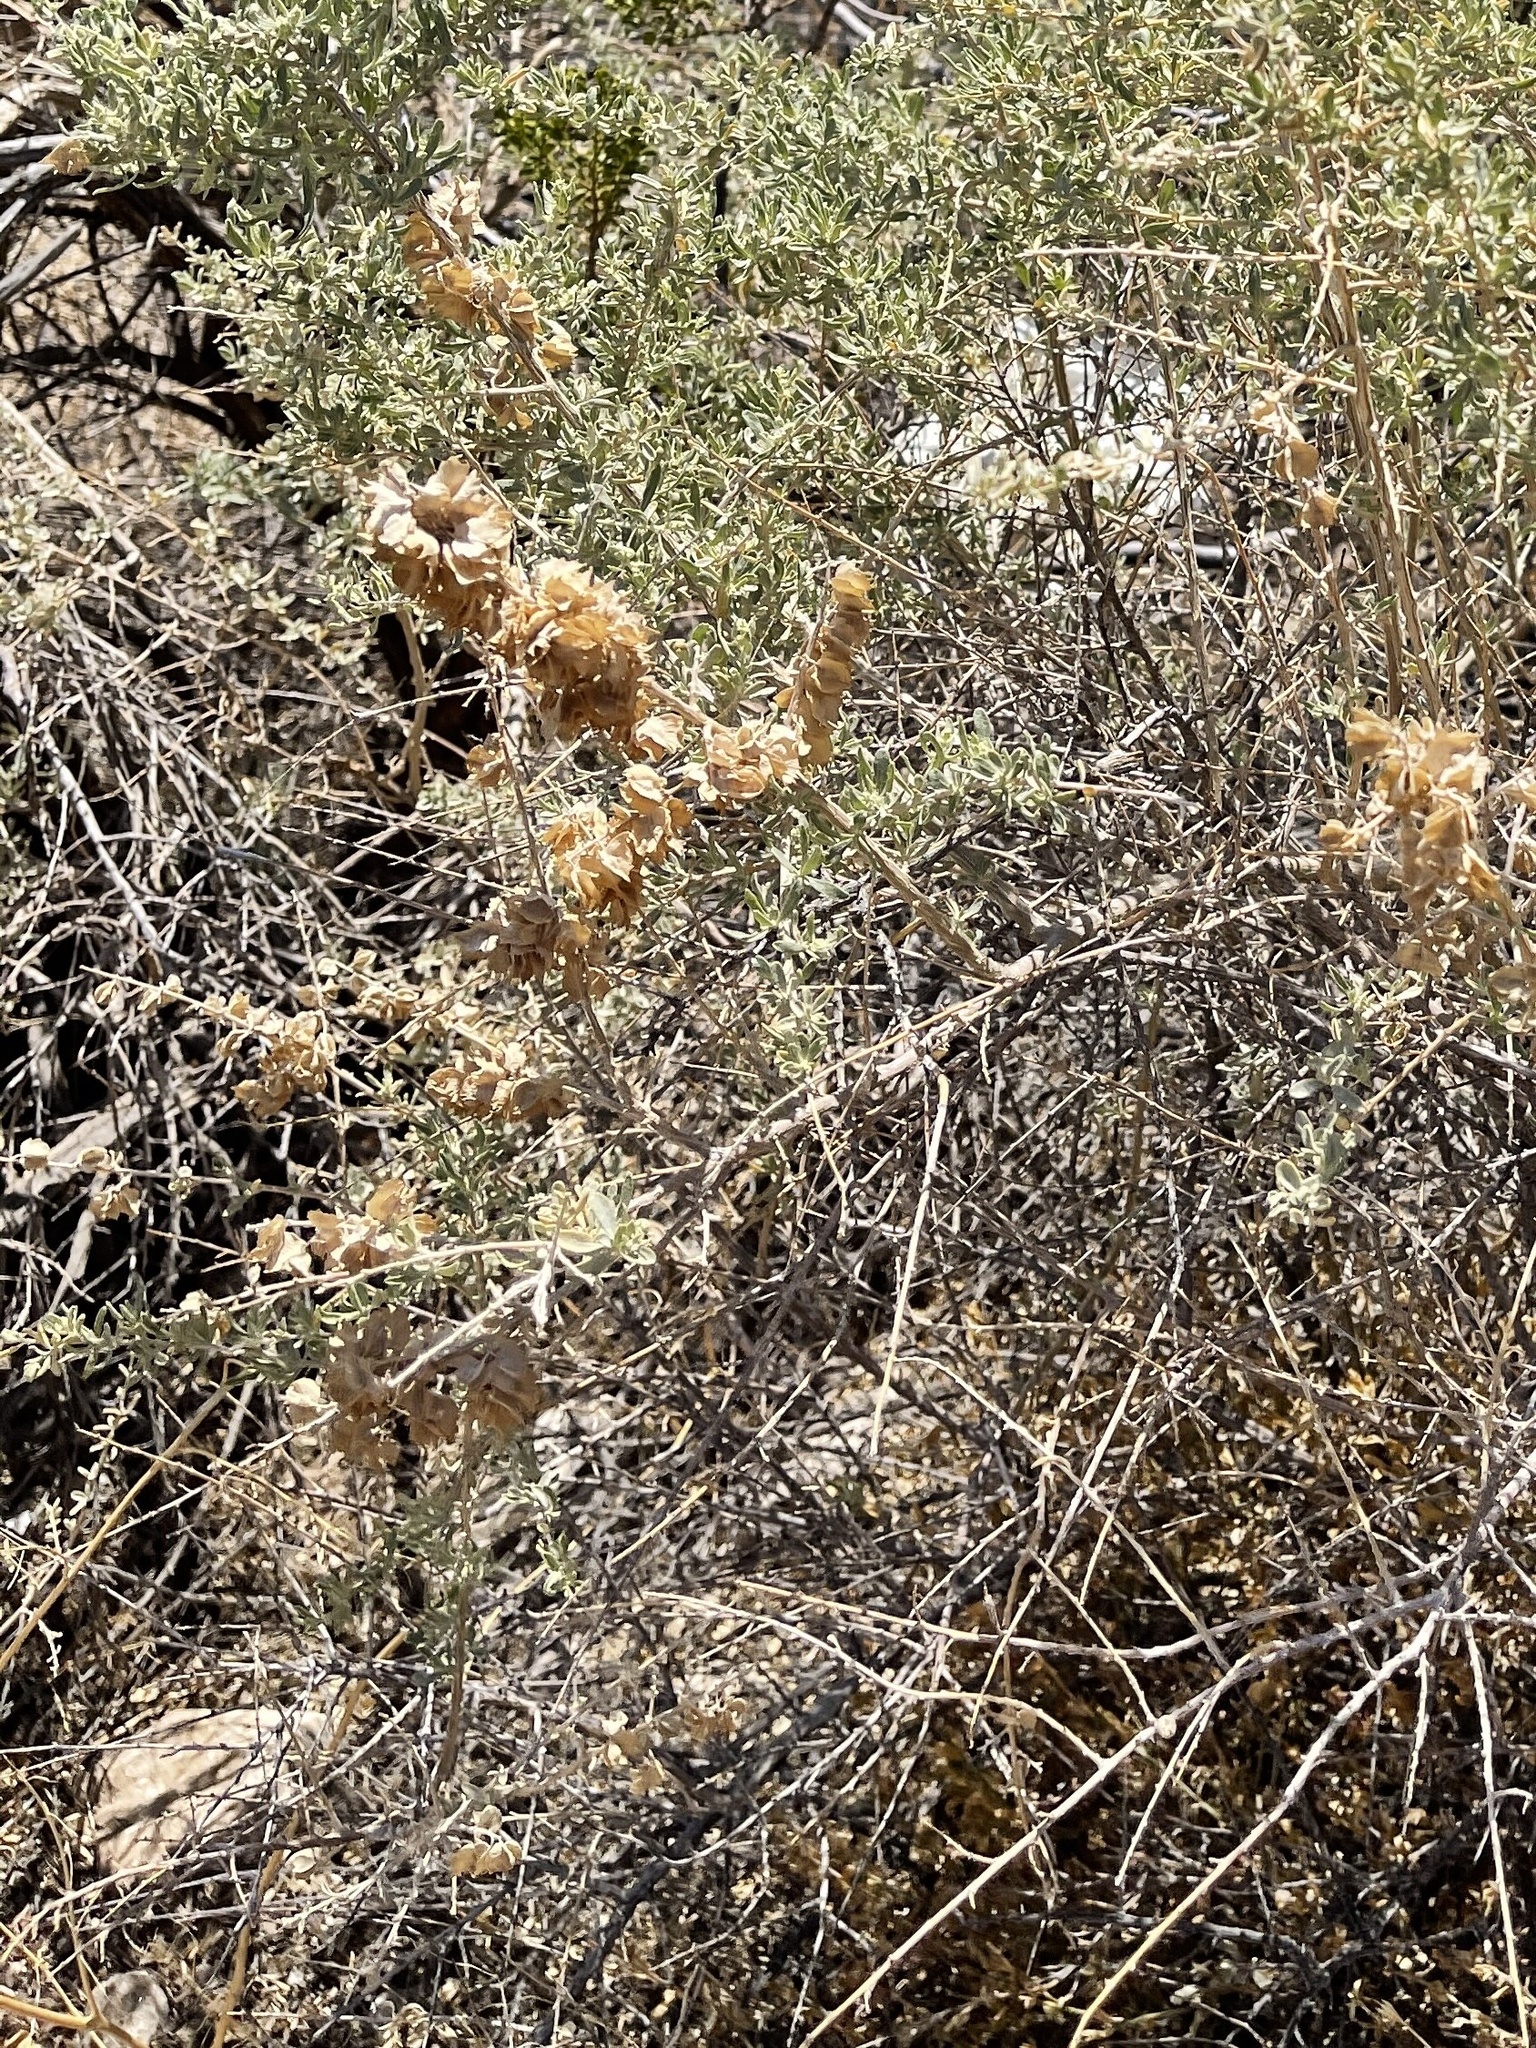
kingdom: Plantae
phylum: Tracheophyta
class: Magnoliopsida
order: Caryophyllales
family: Amaranthaceae
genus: Atriplex
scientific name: Atriplex canescens
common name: Four-wing saltbush
